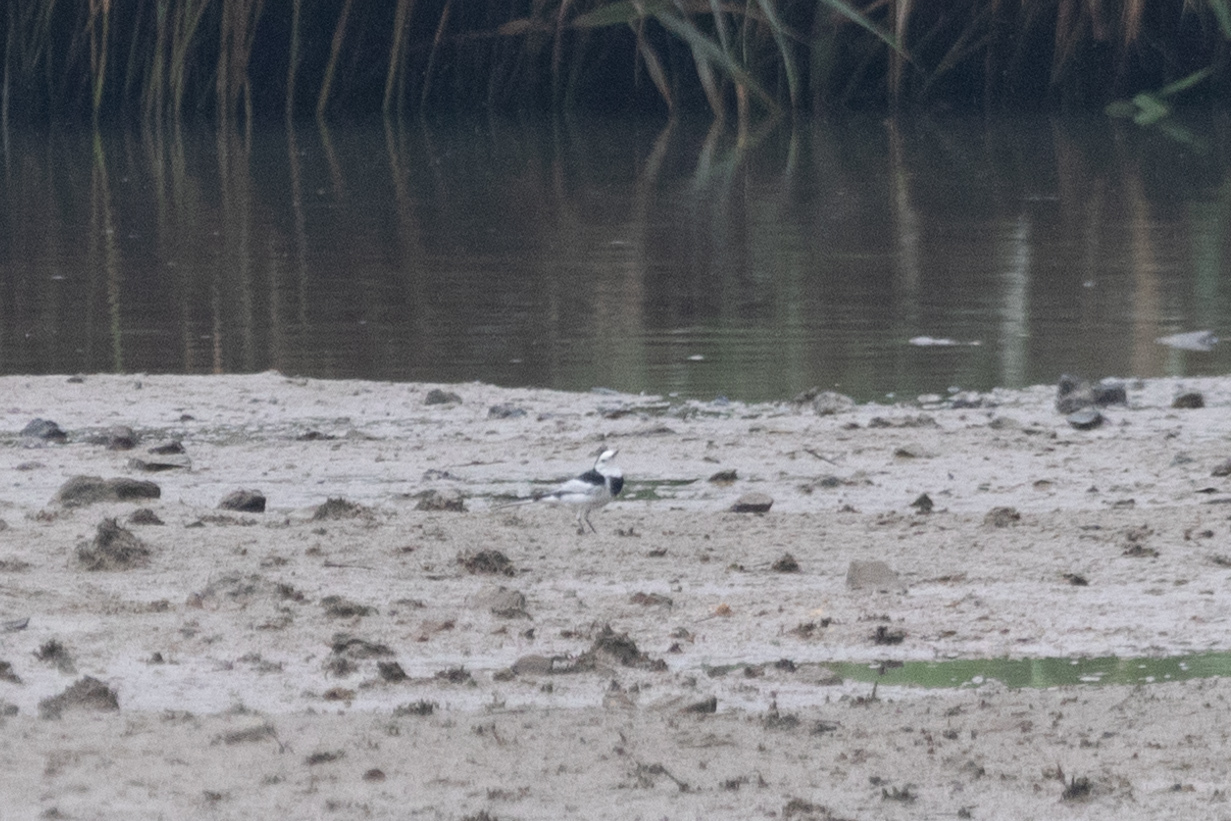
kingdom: Animalia
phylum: Chordata
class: Aves
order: Passeriformes
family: Motacillidae
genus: Motacilla
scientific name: Motacilla alba
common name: White wagtail
